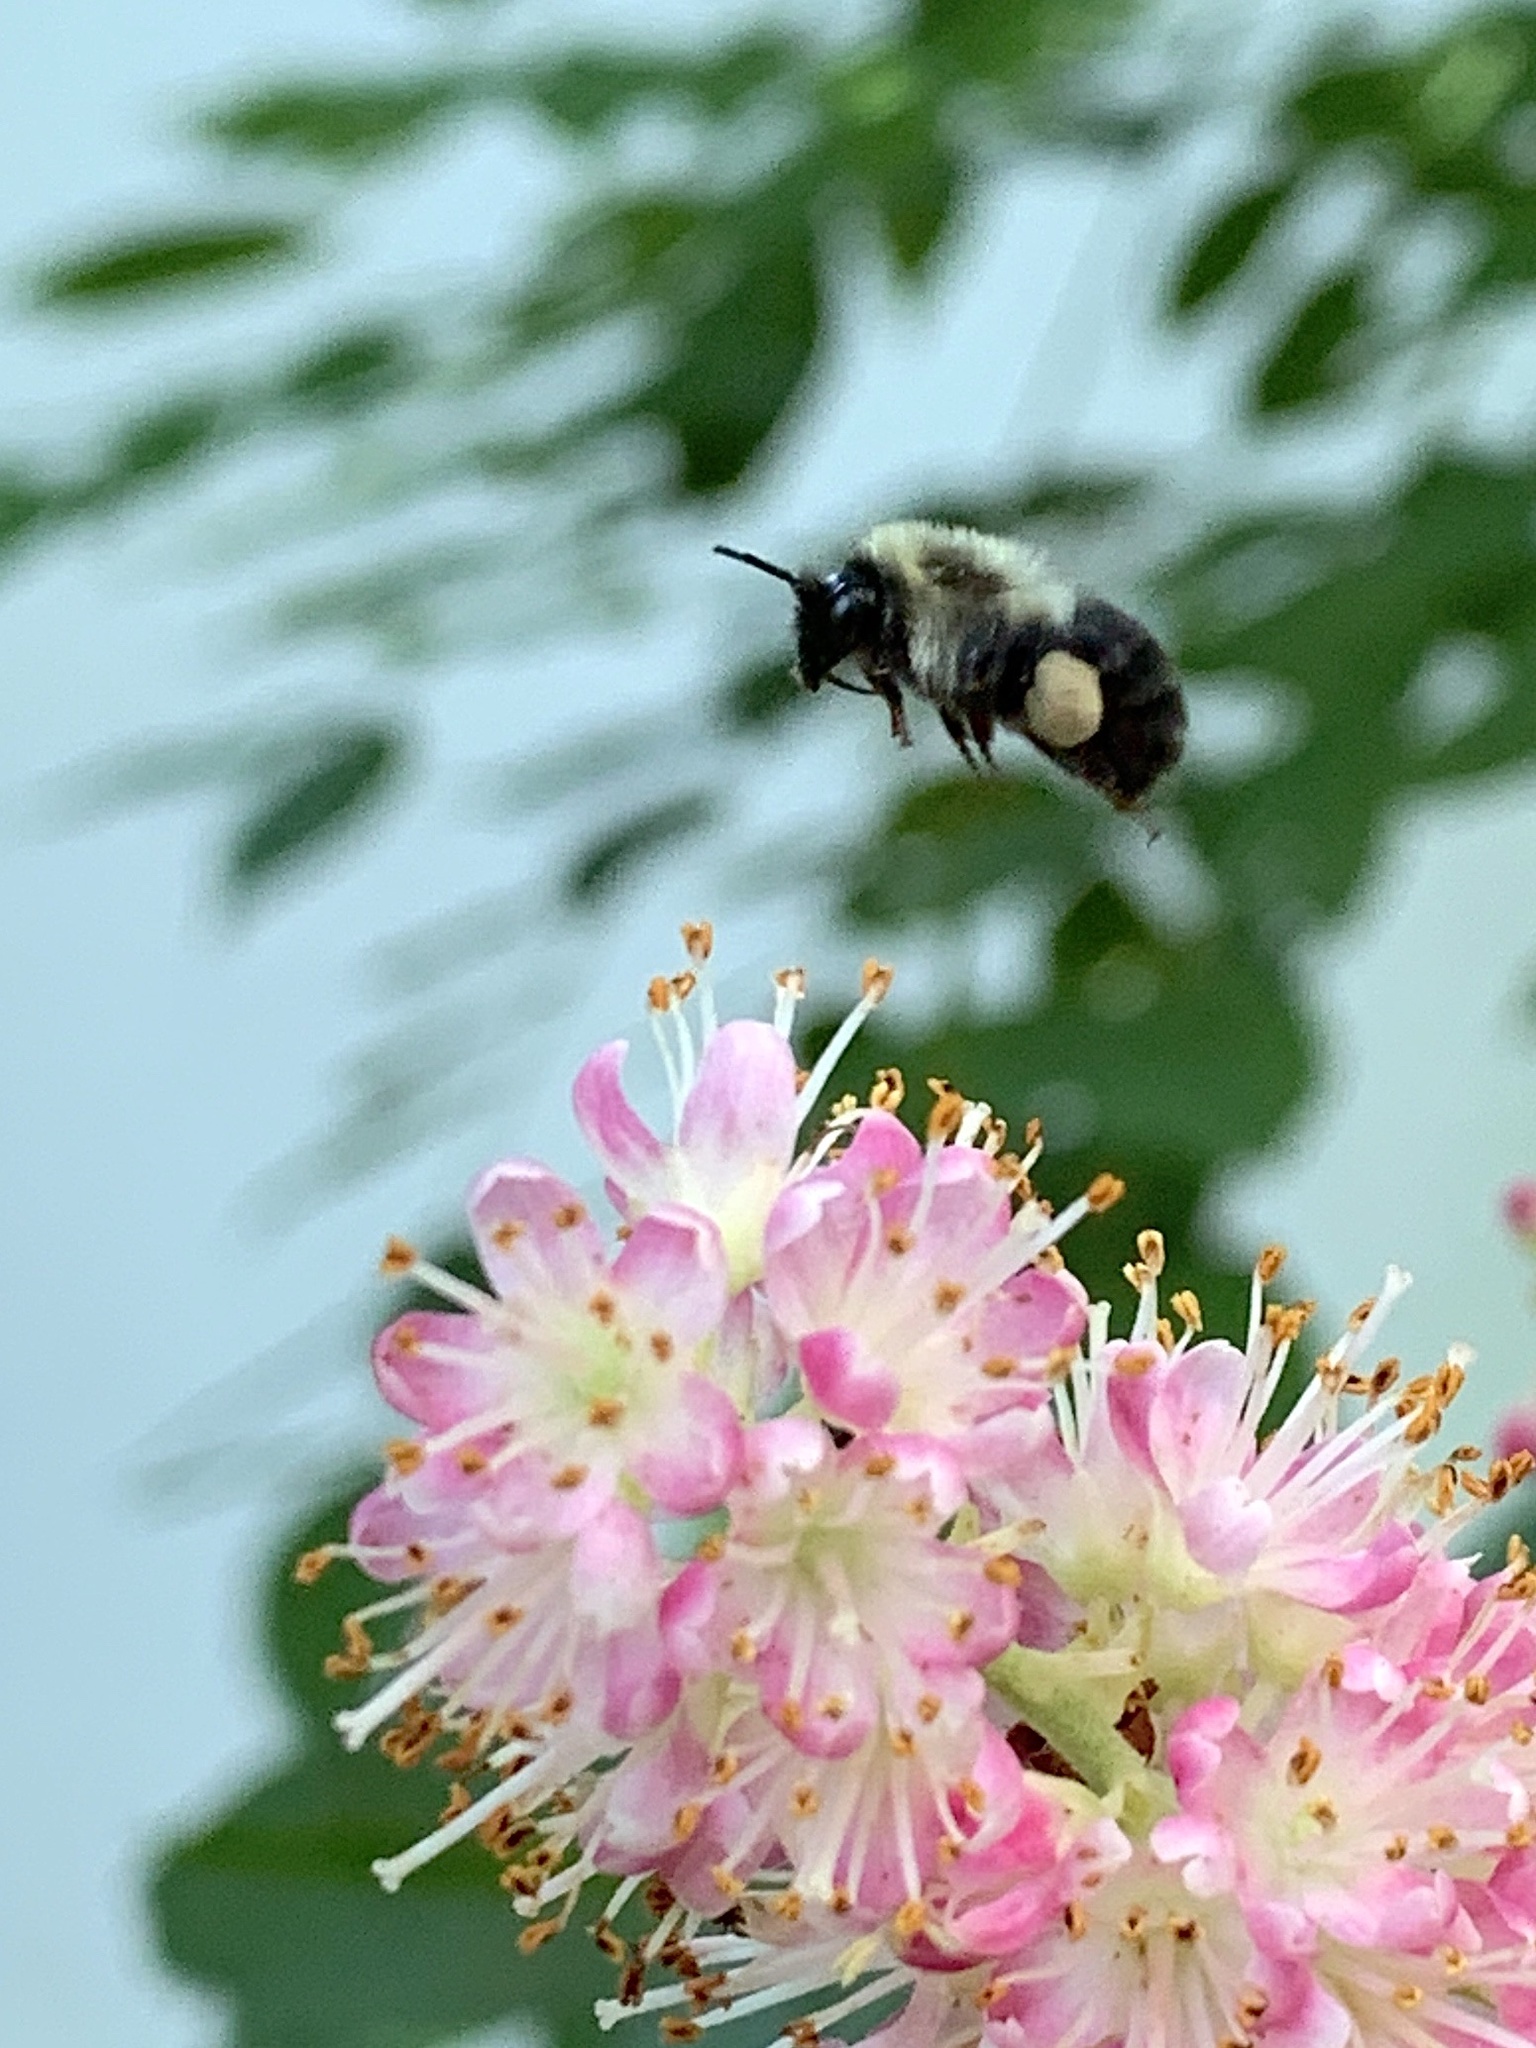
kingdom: Animalia
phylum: Arthropoda
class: Insecta
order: Hymenoptera
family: Apidae
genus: Bombus
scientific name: Bombus impatiens
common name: Common eastern bumble bee
